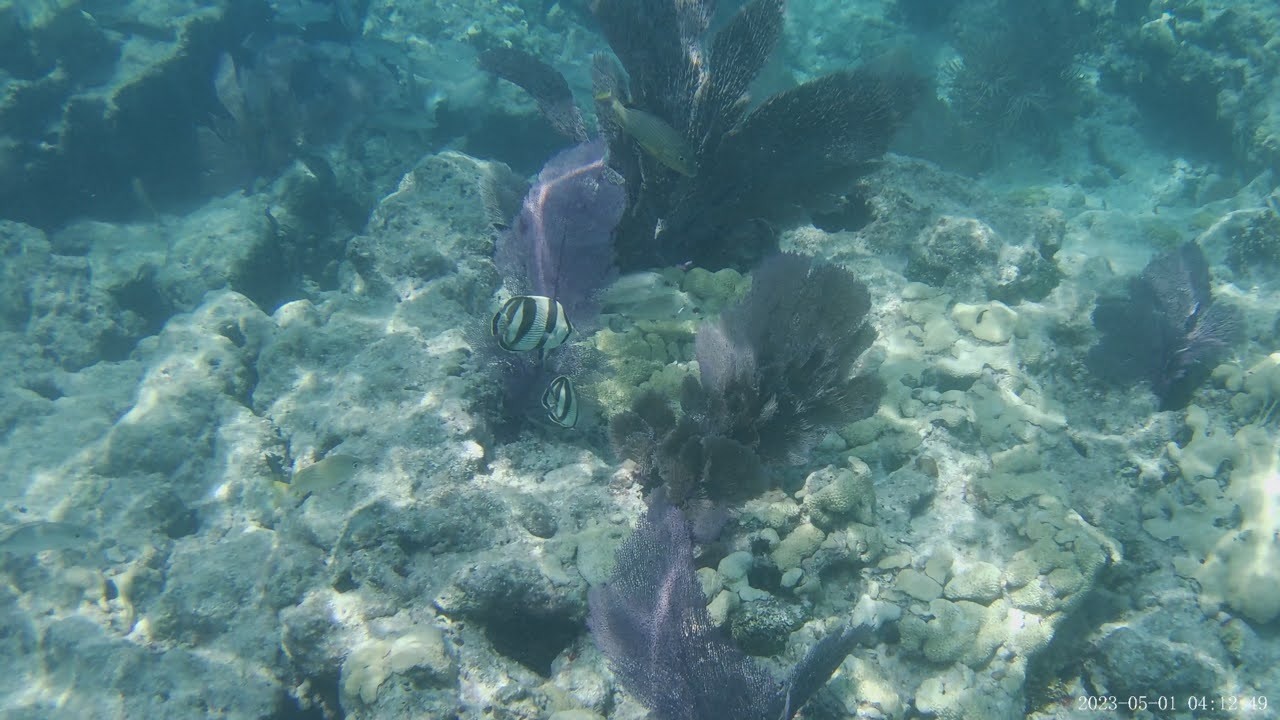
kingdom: Animalia
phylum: Chordata
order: Perciformes
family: Chaetodontidae
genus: Chaetodon
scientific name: Chaetodon striatus
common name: Banded butterflyfish
